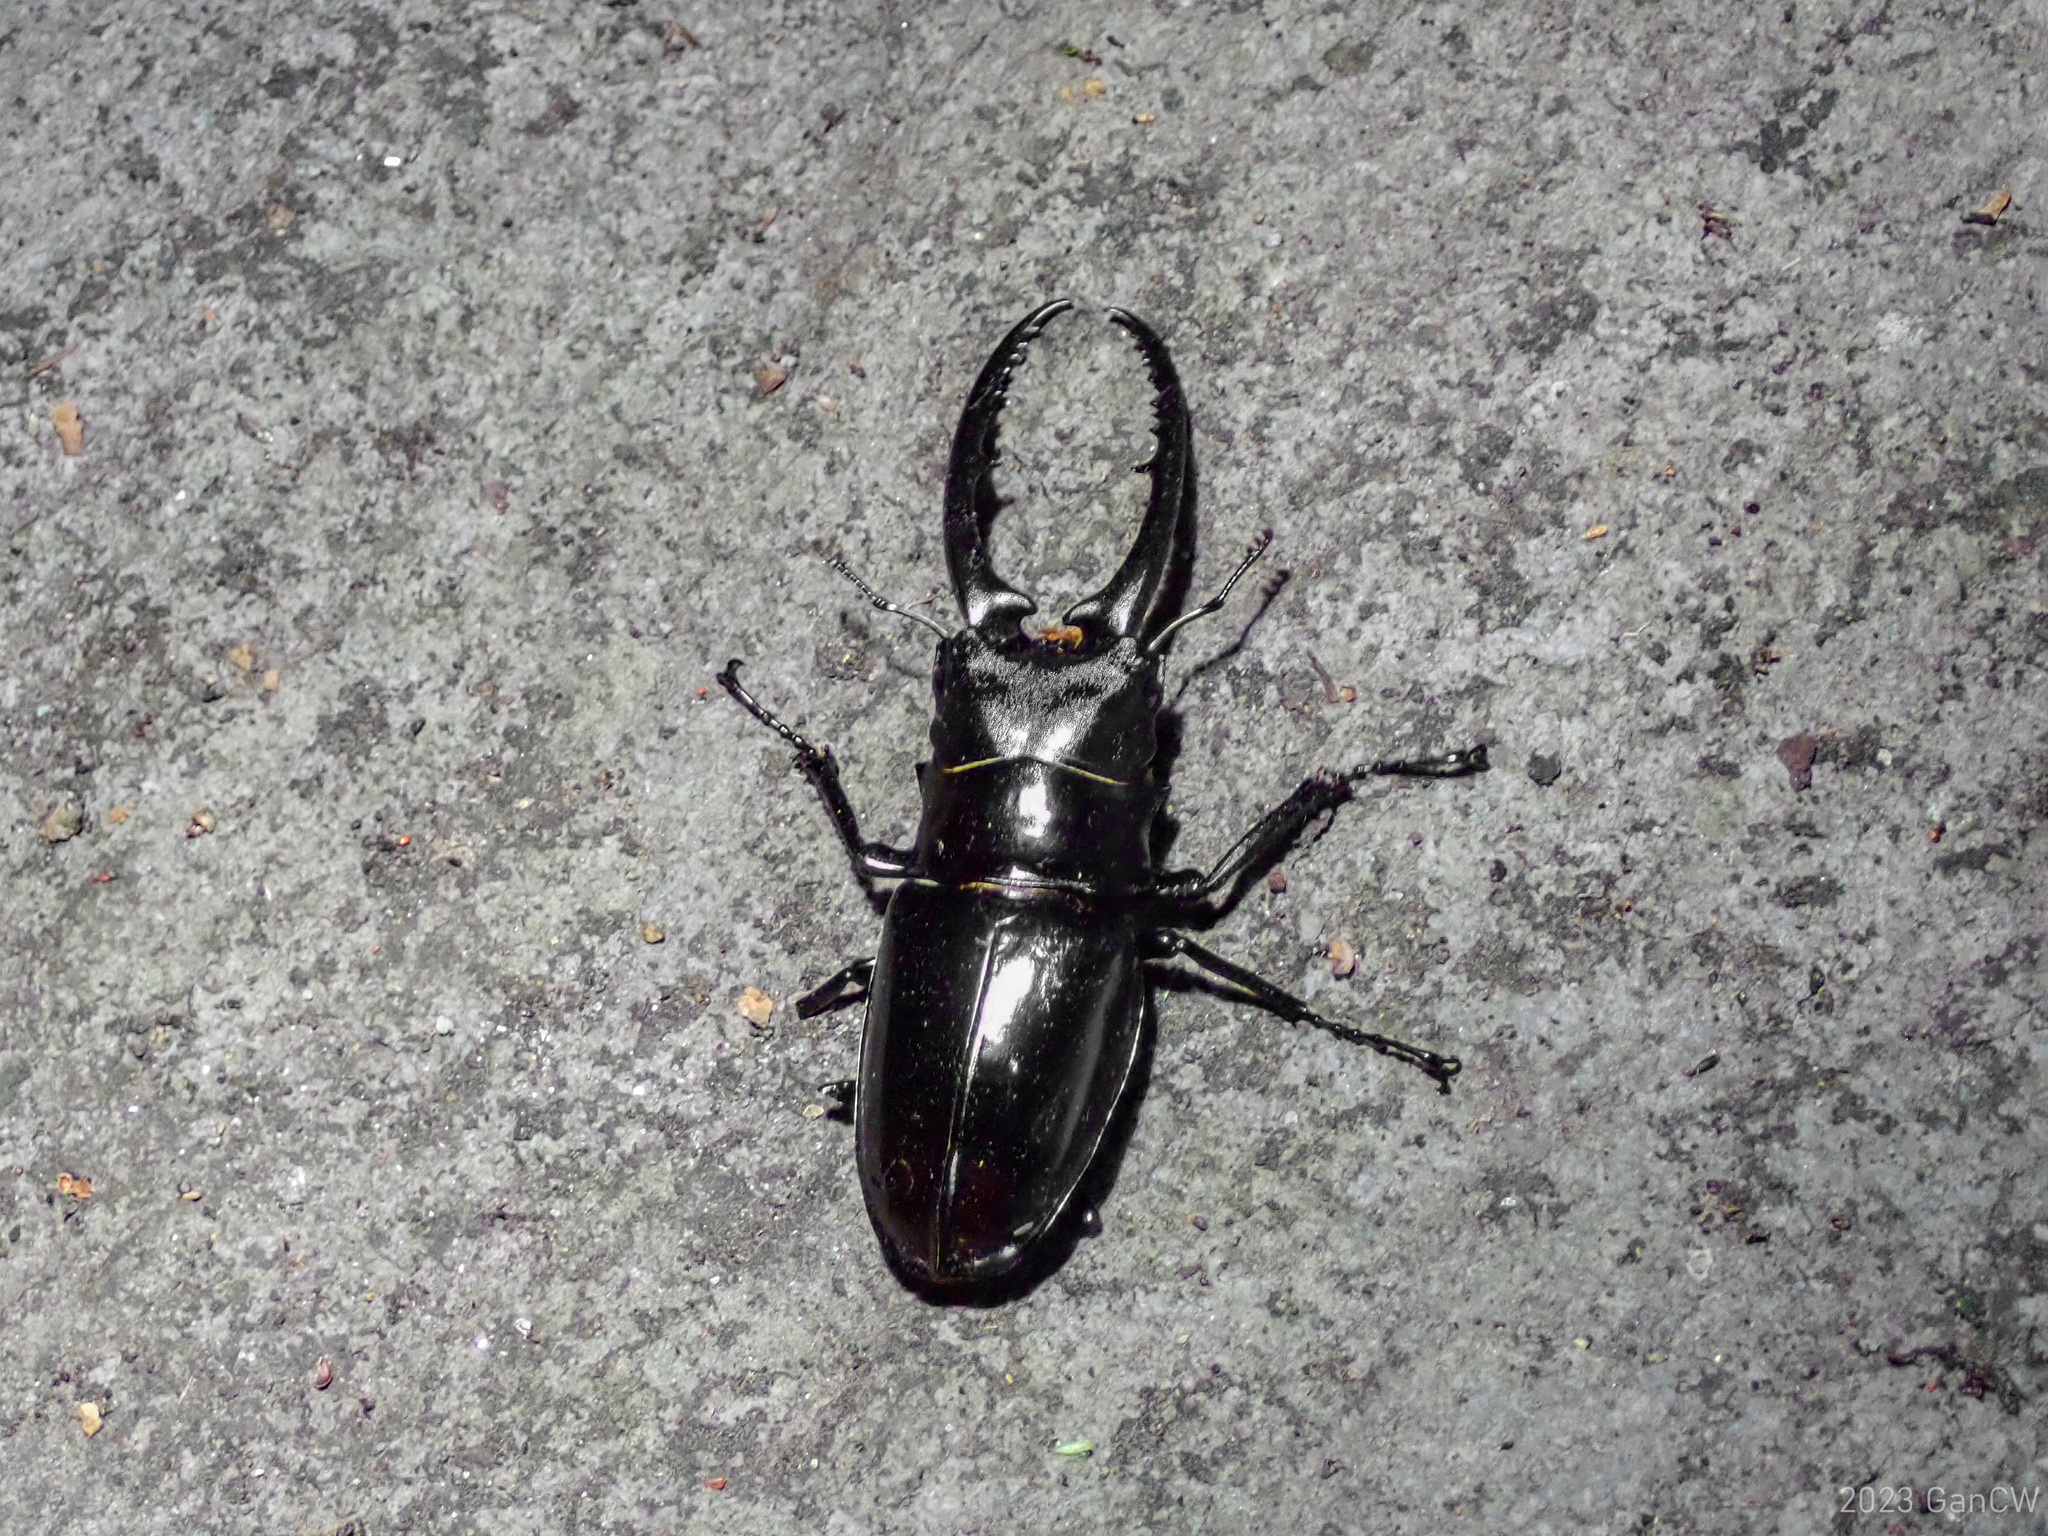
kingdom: Animalia
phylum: Arthropoda
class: Insecta
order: Coleoptera
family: Lucanidae
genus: Prosopocoilus
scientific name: Prosopocoilus confucius
